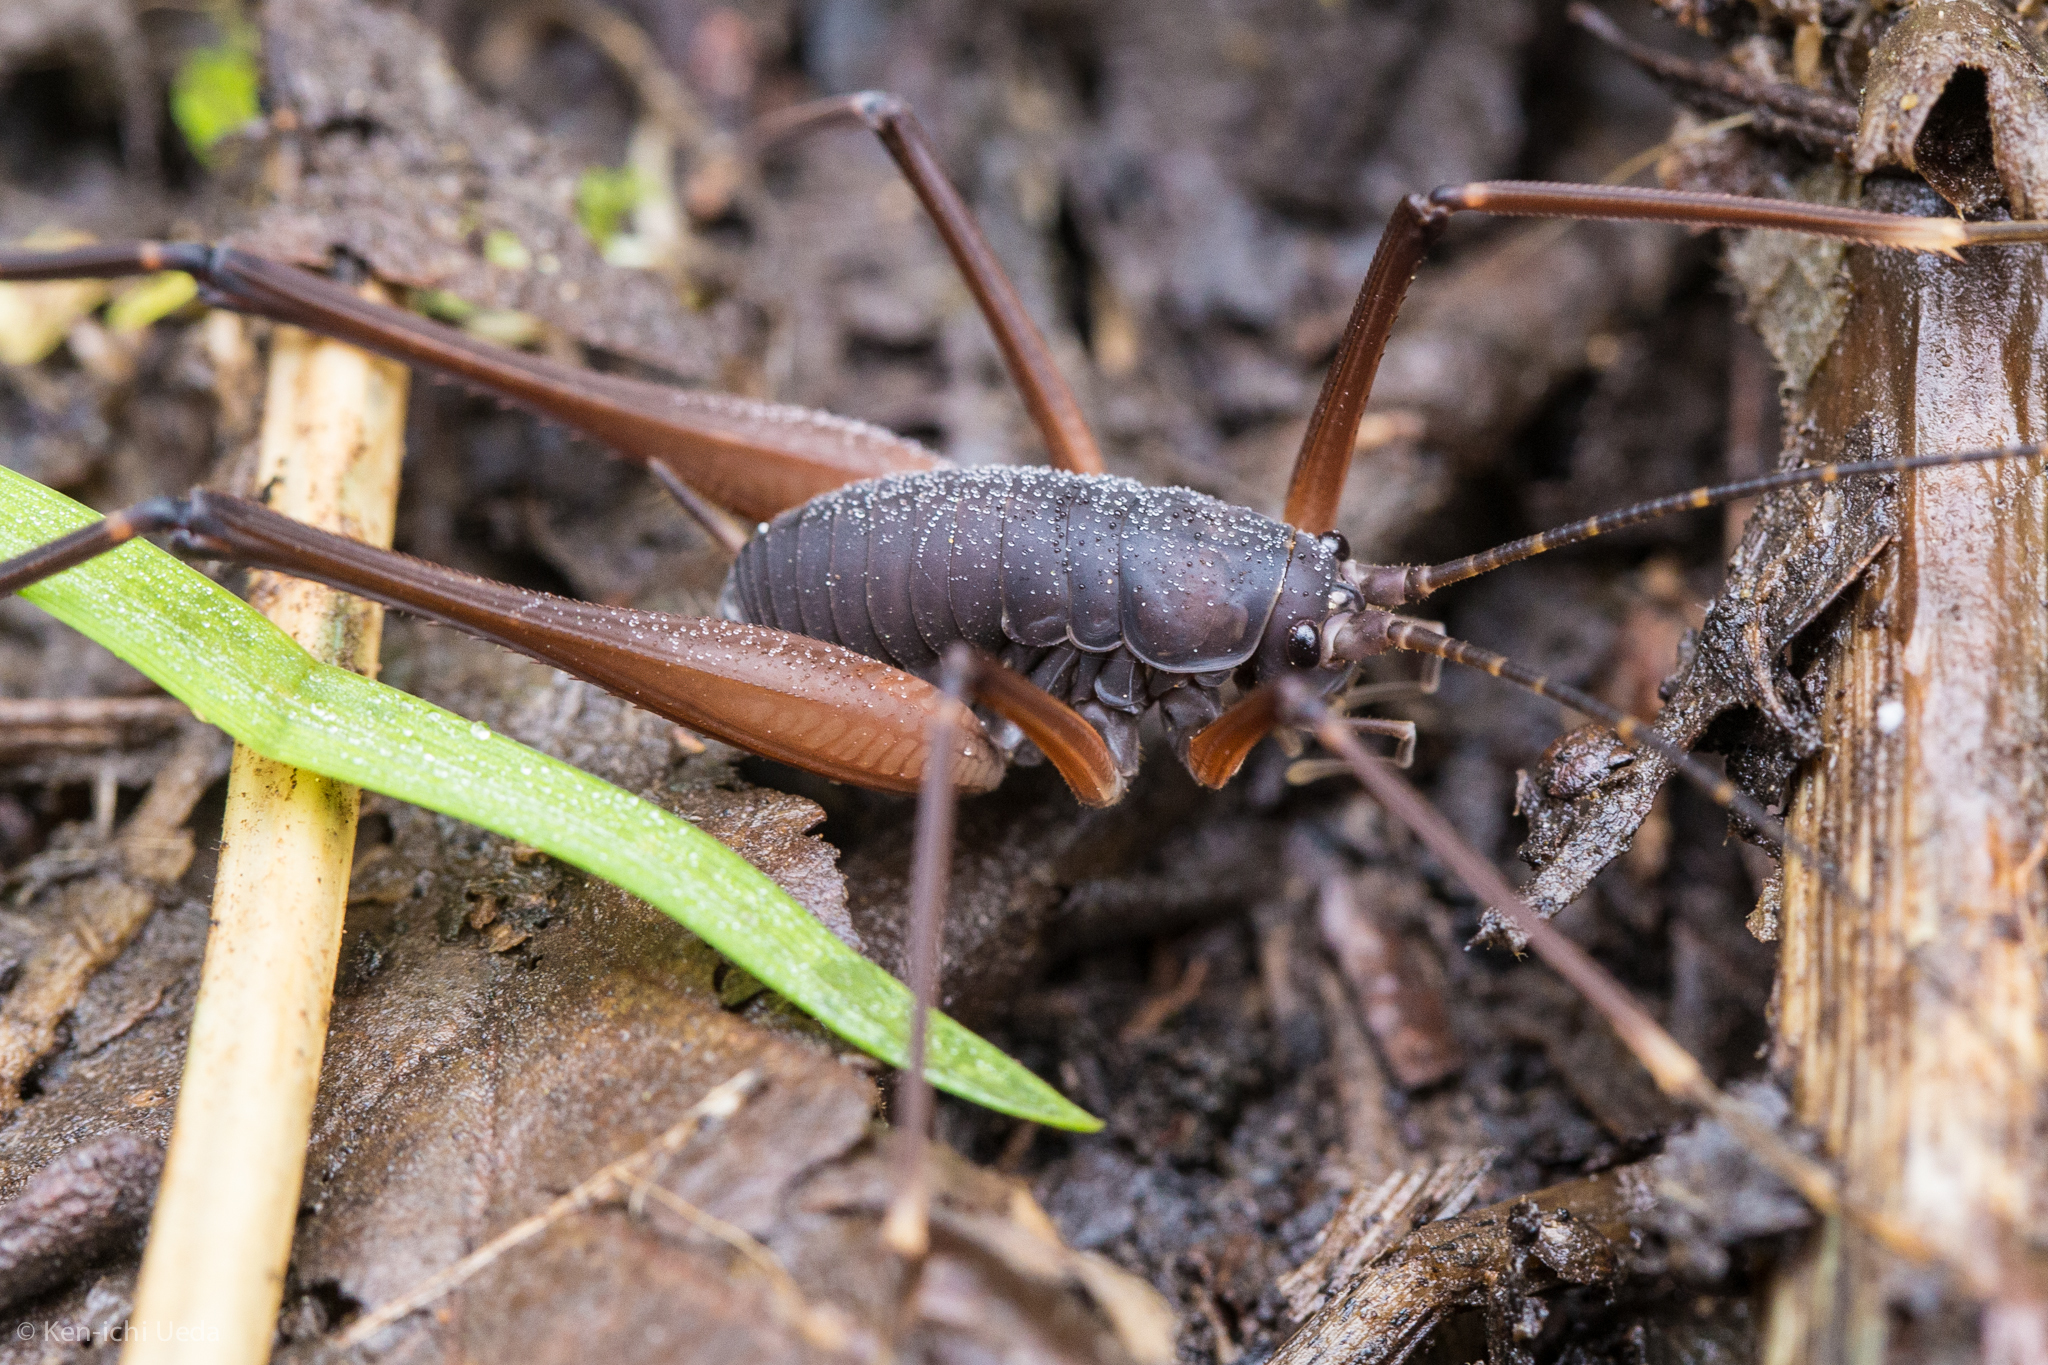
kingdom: Animalia
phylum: Arthropoda
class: Insecta
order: Orthoptera
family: Rhaphidophoridae
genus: Tropidischia
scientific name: Tropidischia xanthostoma
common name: Square-legged camel cricket
